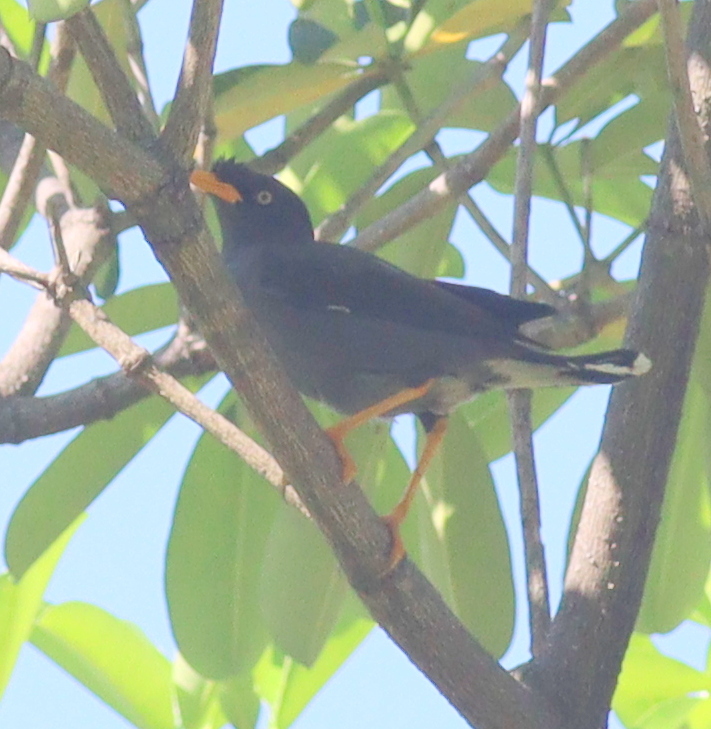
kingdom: Animalia
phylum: Chordata
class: Aves
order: Passeriformes
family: Sturnidae
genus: Acridotheres
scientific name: Acridotheres javanicus
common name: Javan myna
